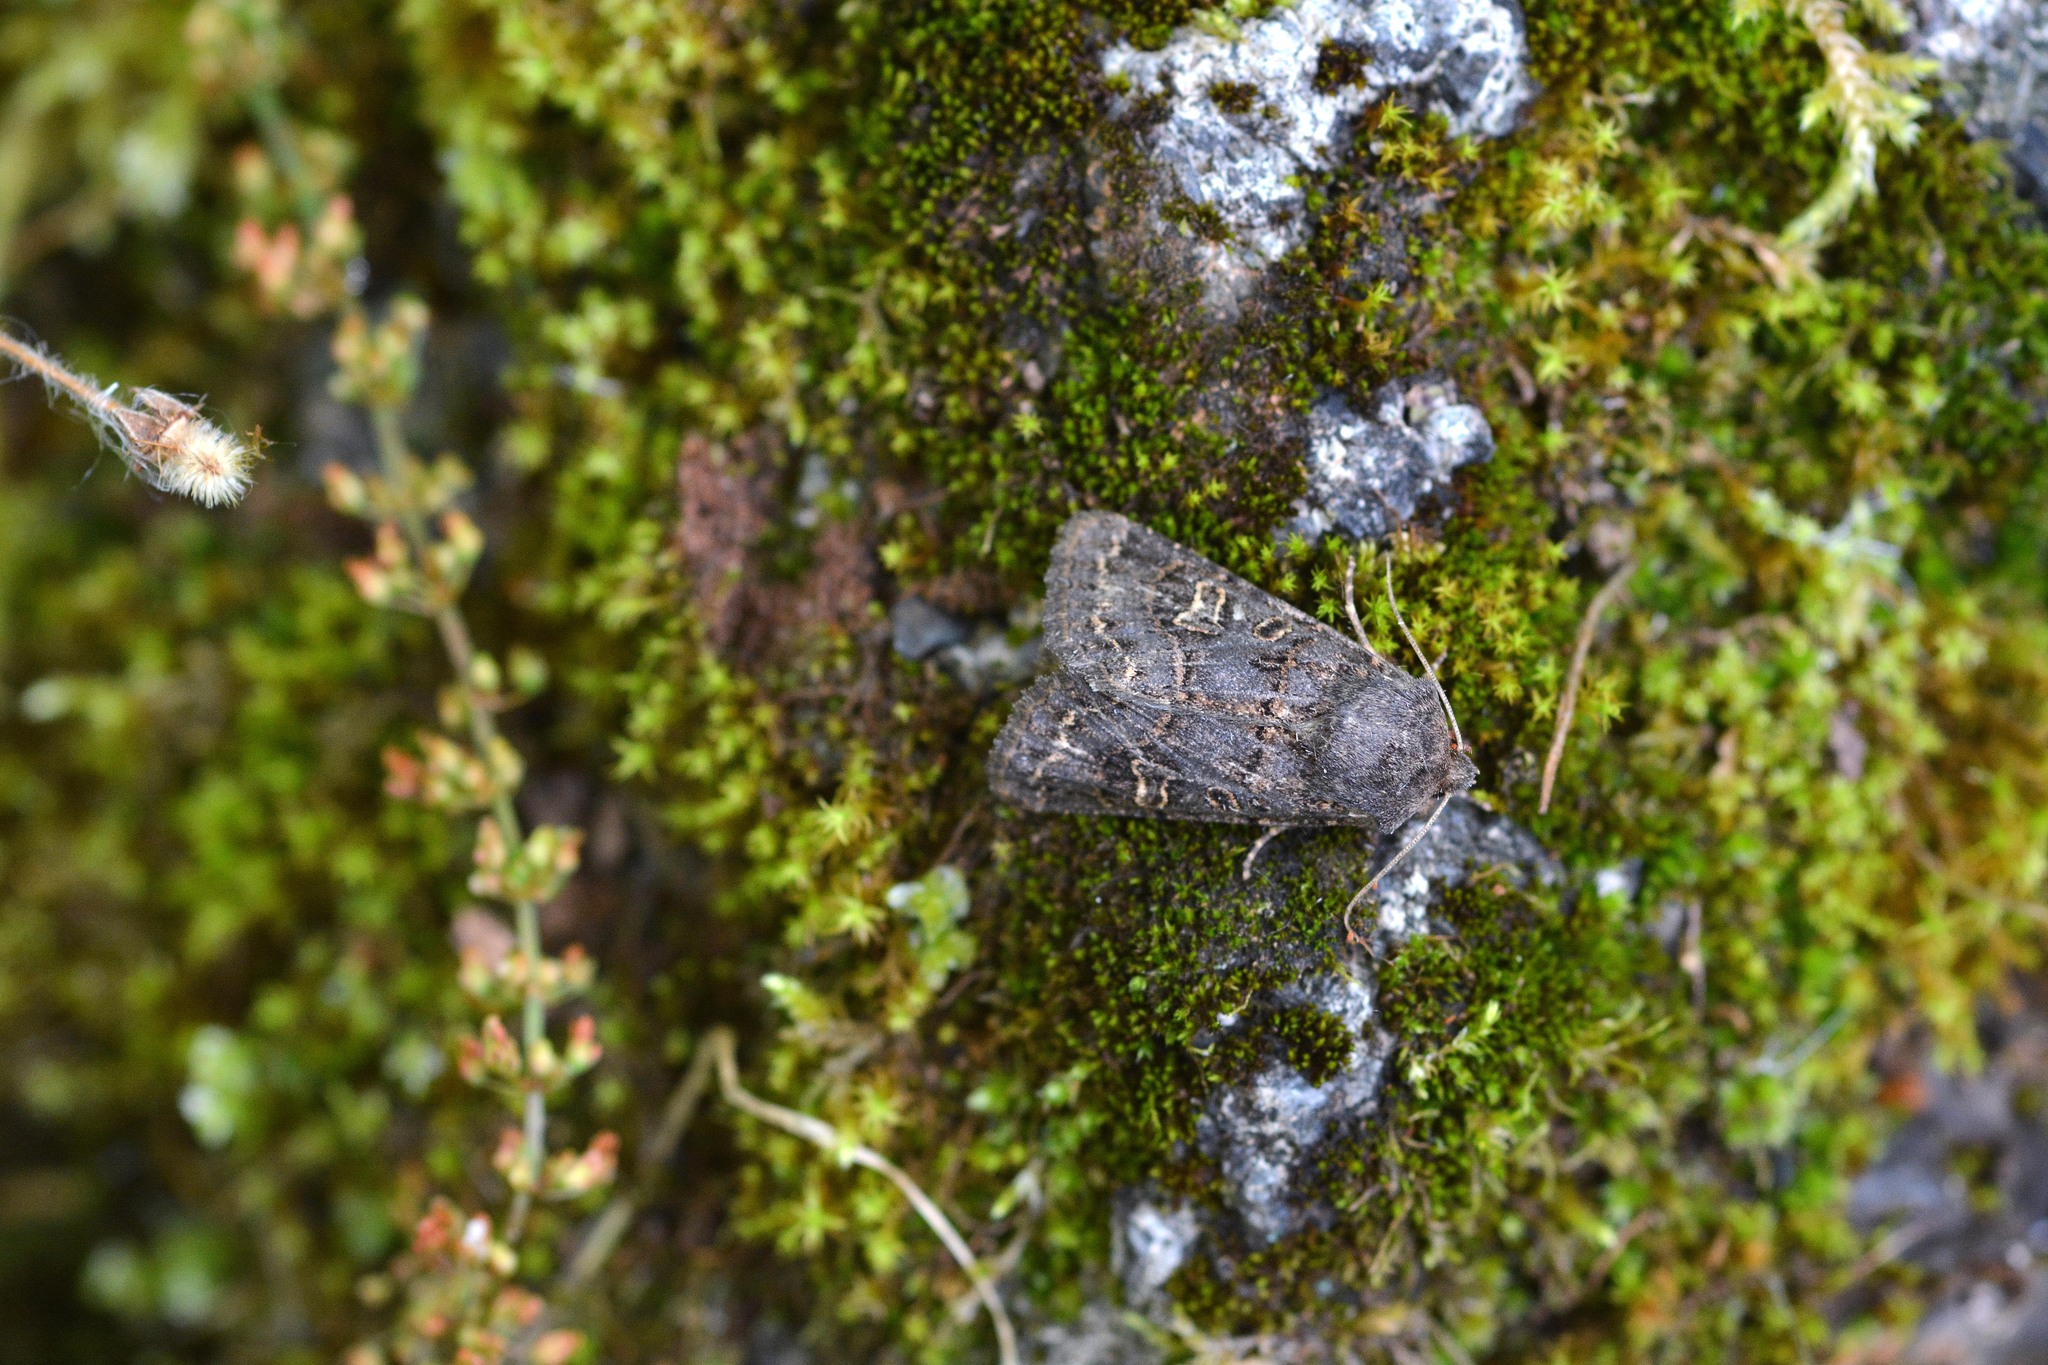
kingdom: Animalia
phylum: Arthropoda
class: Insecta
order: Lepidoptera
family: Noctuidae
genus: Tholera
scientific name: Tholera cespitis
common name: Hedge rustic
